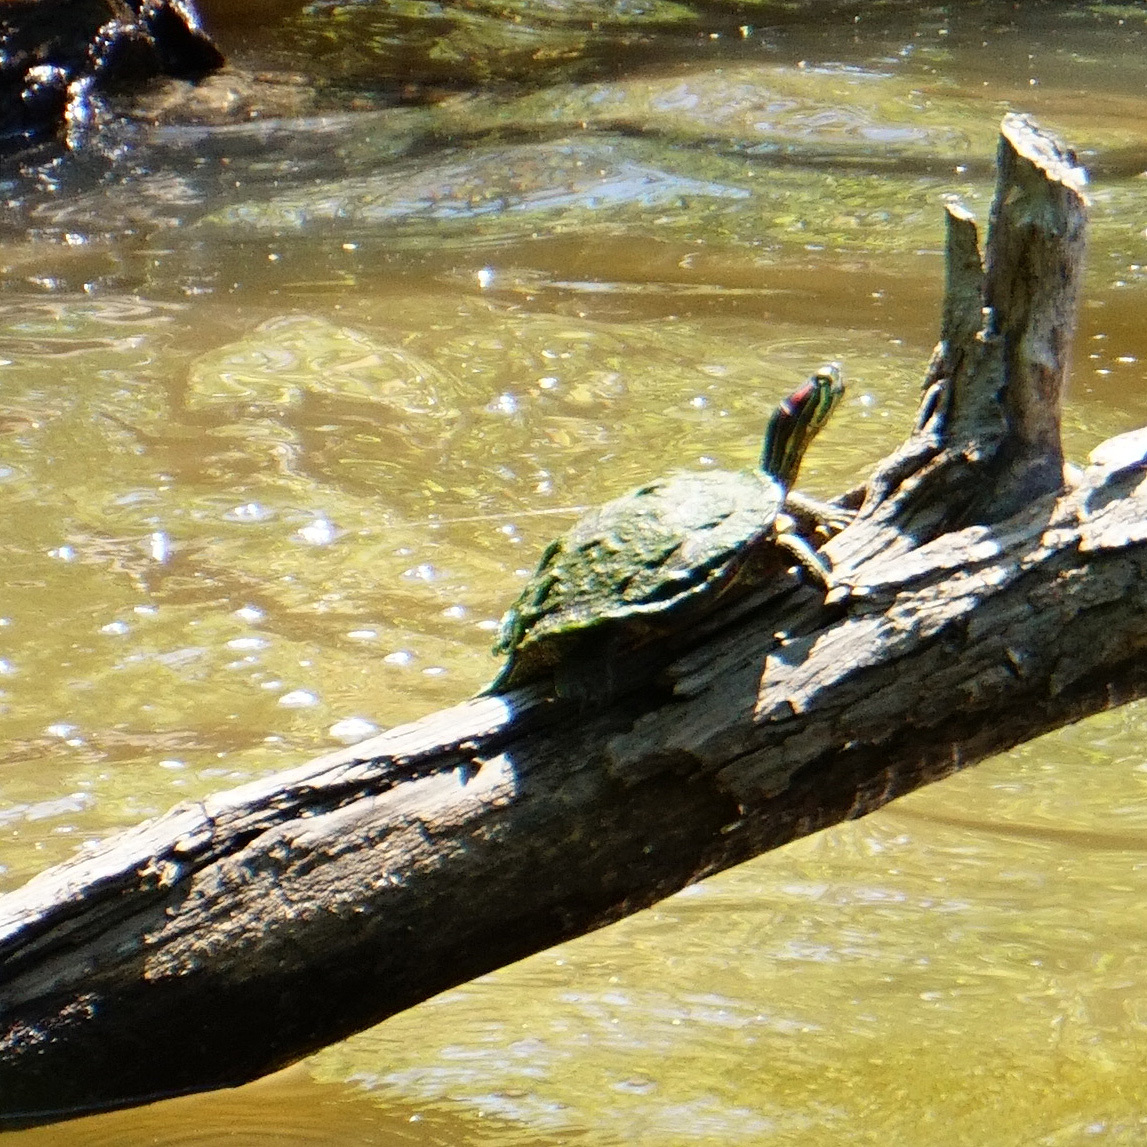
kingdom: Animalia
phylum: Chordata
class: Testudines
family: Emydidae
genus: Trachemys
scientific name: Trachemys scripta
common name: Slider
